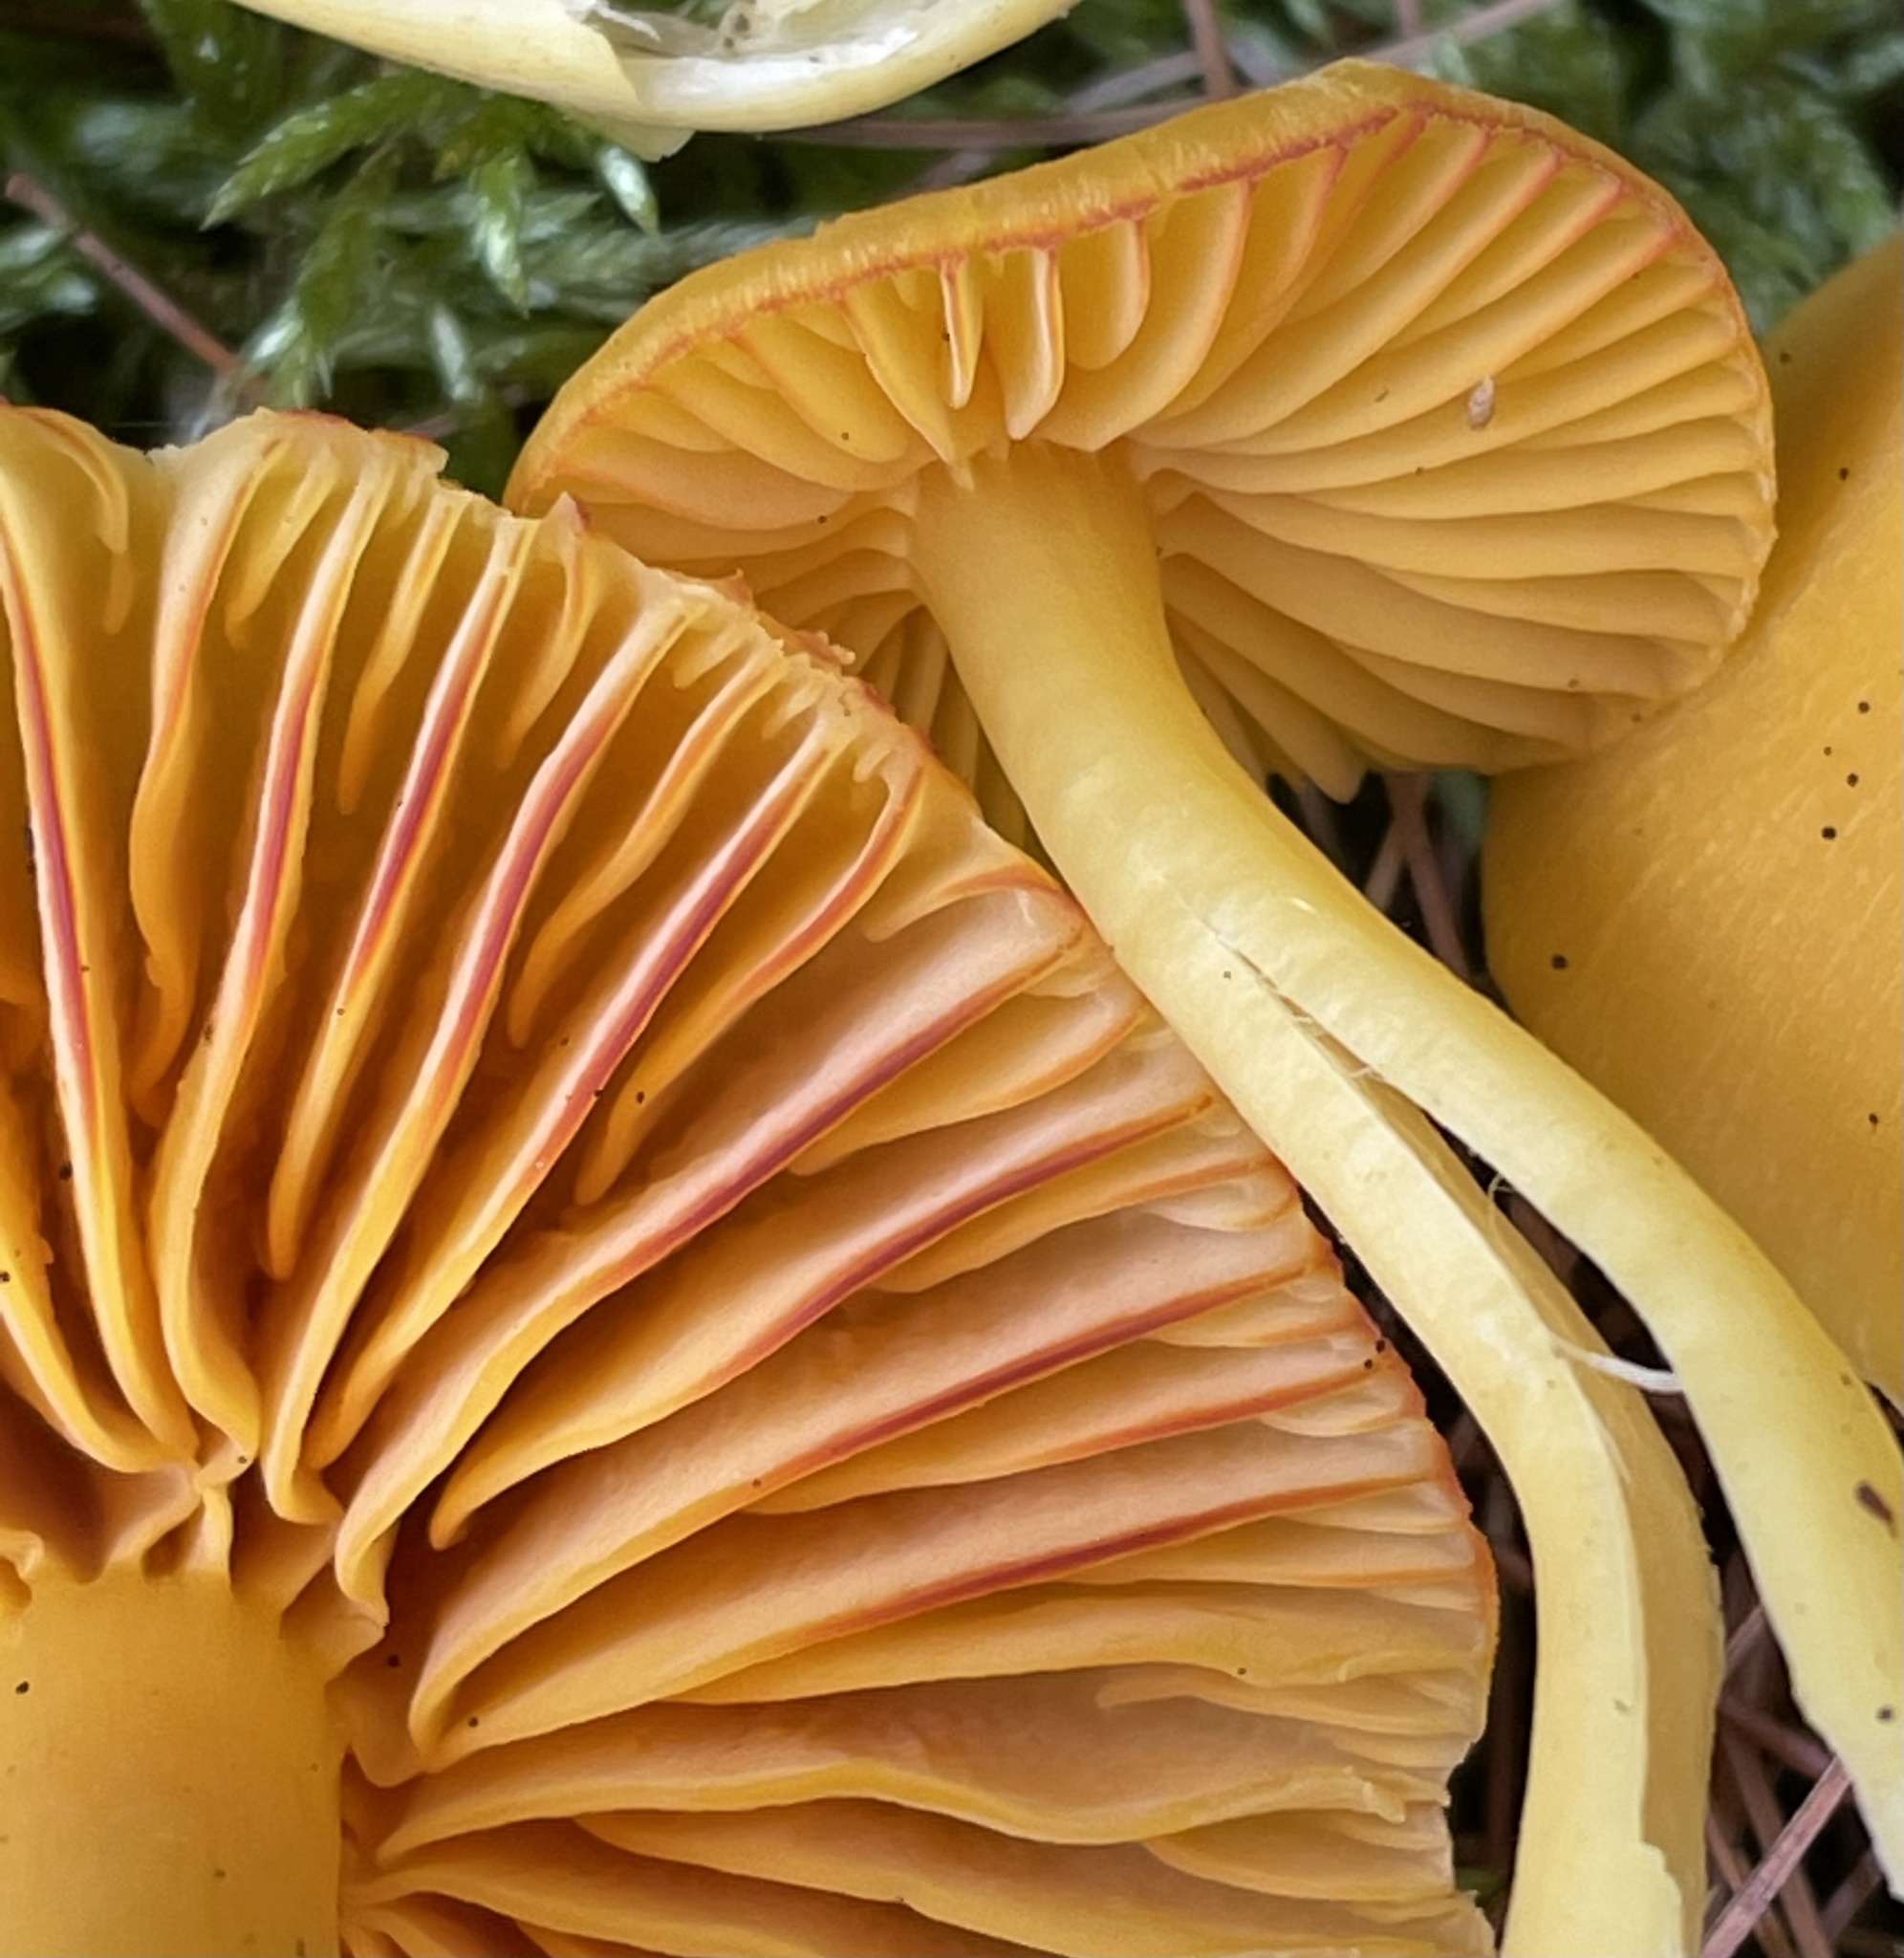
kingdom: Fungi
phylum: Basidiomycota
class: Agaricomycetes
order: Agaricales
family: Hygrophoraceae
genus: Humidicutis
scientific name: Humidicutis marginata
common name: Orange gilled waxcap
